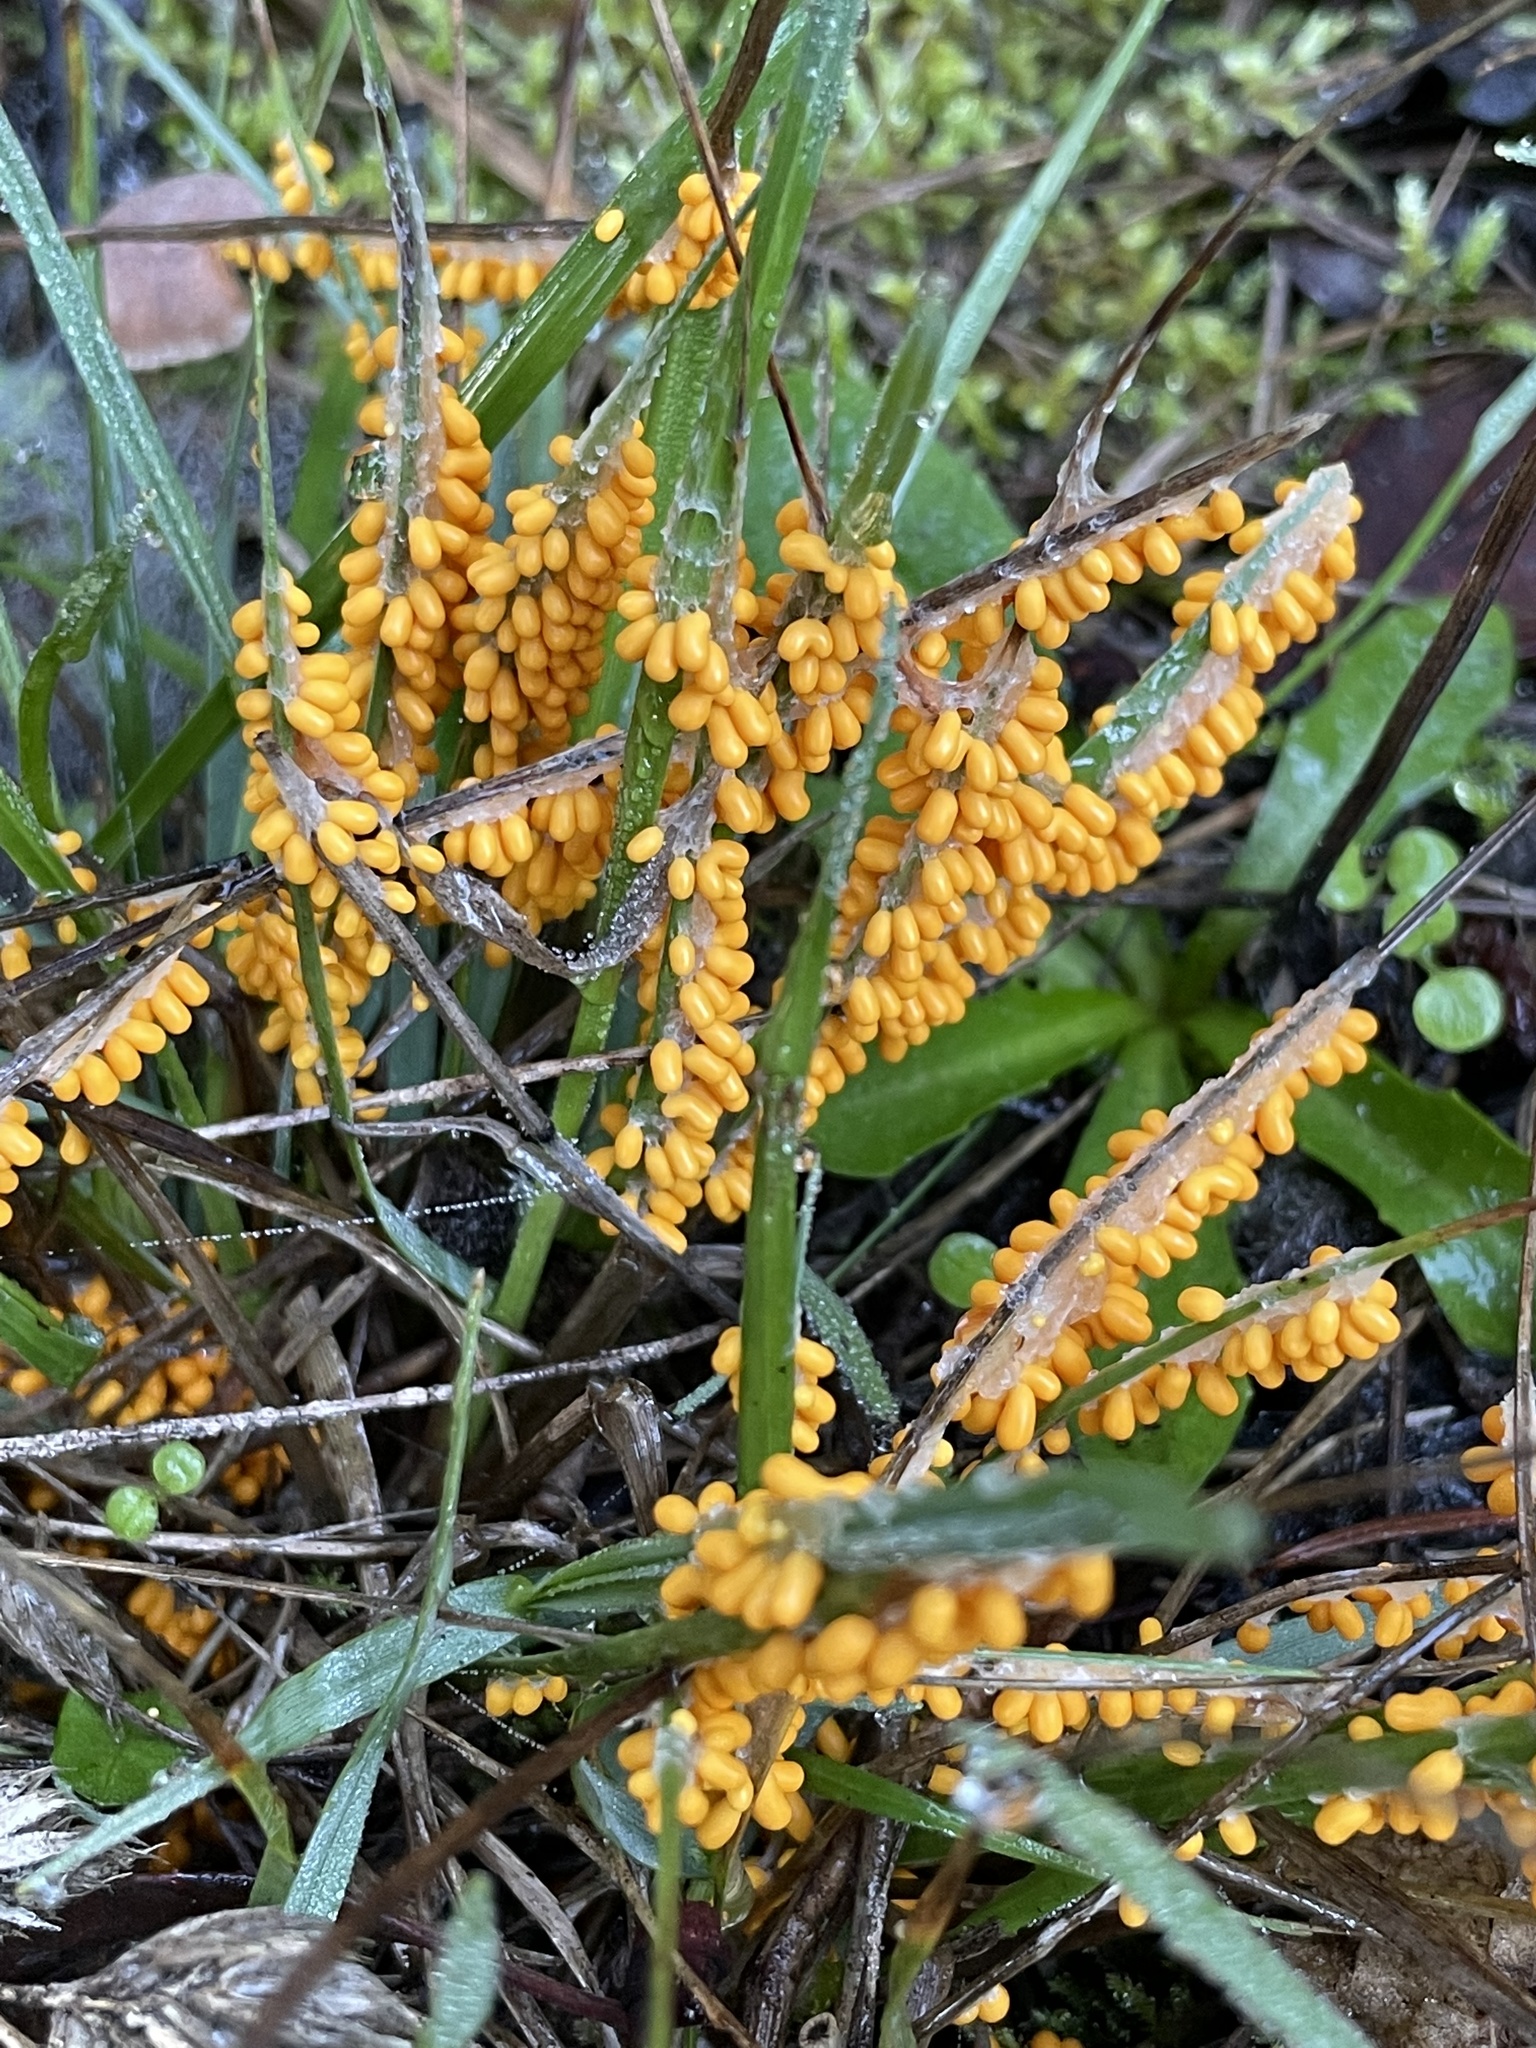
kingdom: Protozoa
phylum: Mycetozoa
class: Myxomycetes
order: Physarales
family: Physaraceae
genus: Leocarpus
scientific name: Leocarpus fragilis
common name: Insect-egg slime
